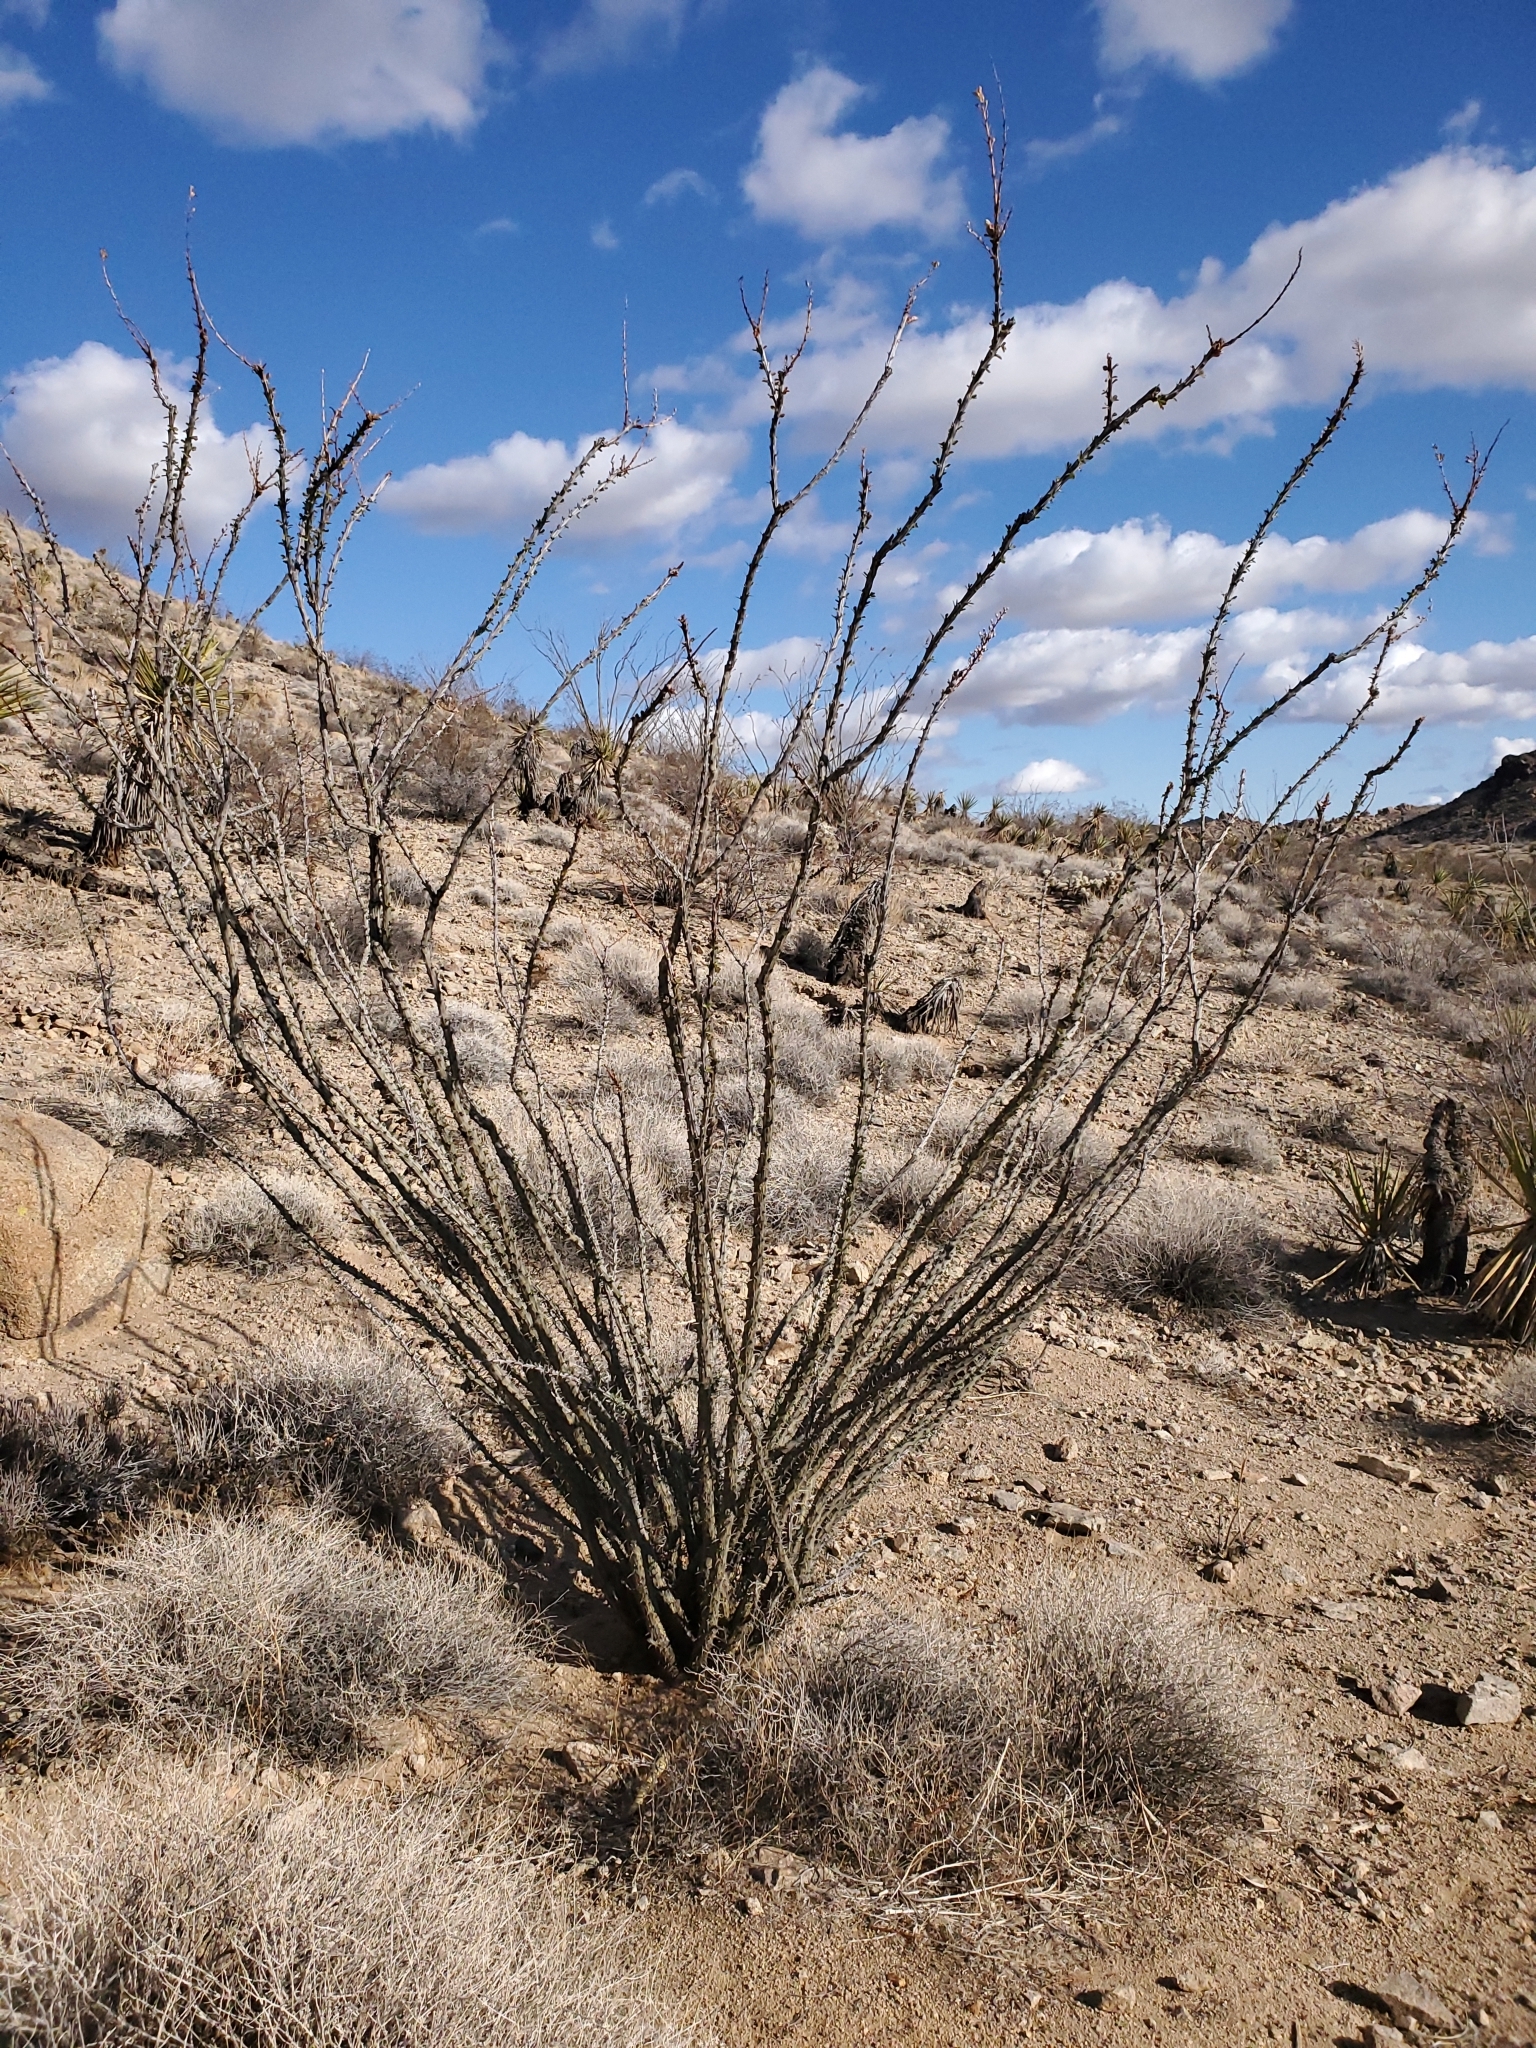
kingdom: Plantae
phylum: Tracheophyta
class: Magnoliopsida
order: Ericales
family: Fouquieriaceae
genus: Fouquieria
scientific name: Fouquieria splendens
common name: Vine-cactus
